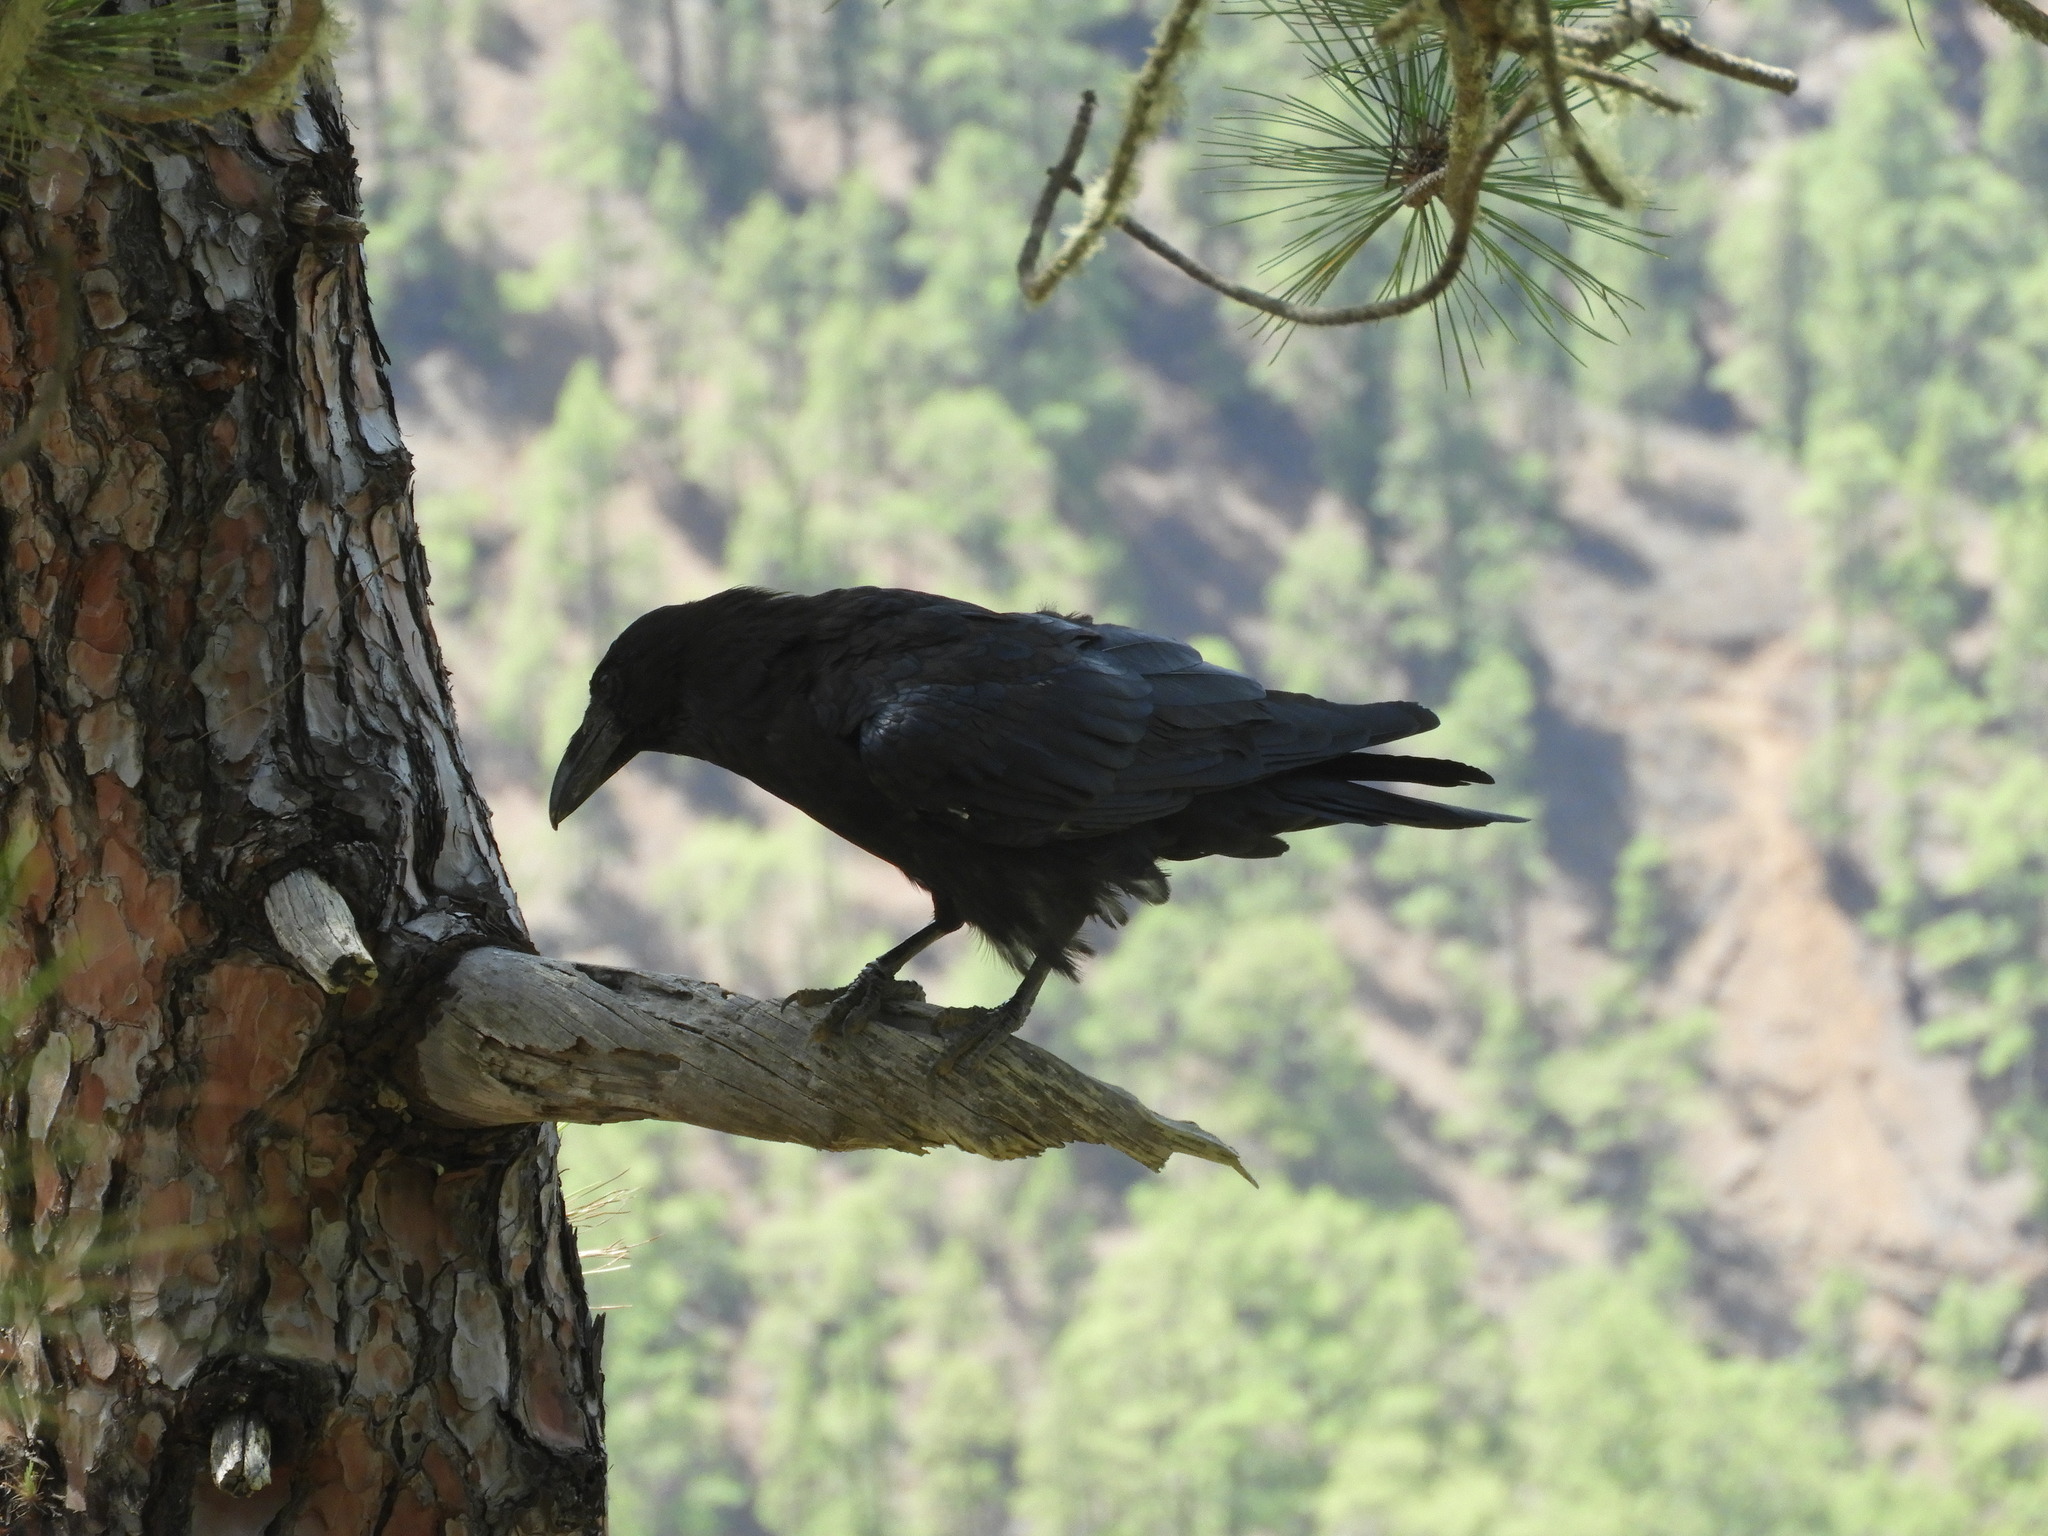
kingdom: Animalia
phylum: Chordata
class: Aves
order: Passeriformes
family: Corvidae
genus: Corvus
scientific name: Corvus corax
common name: Common raven
